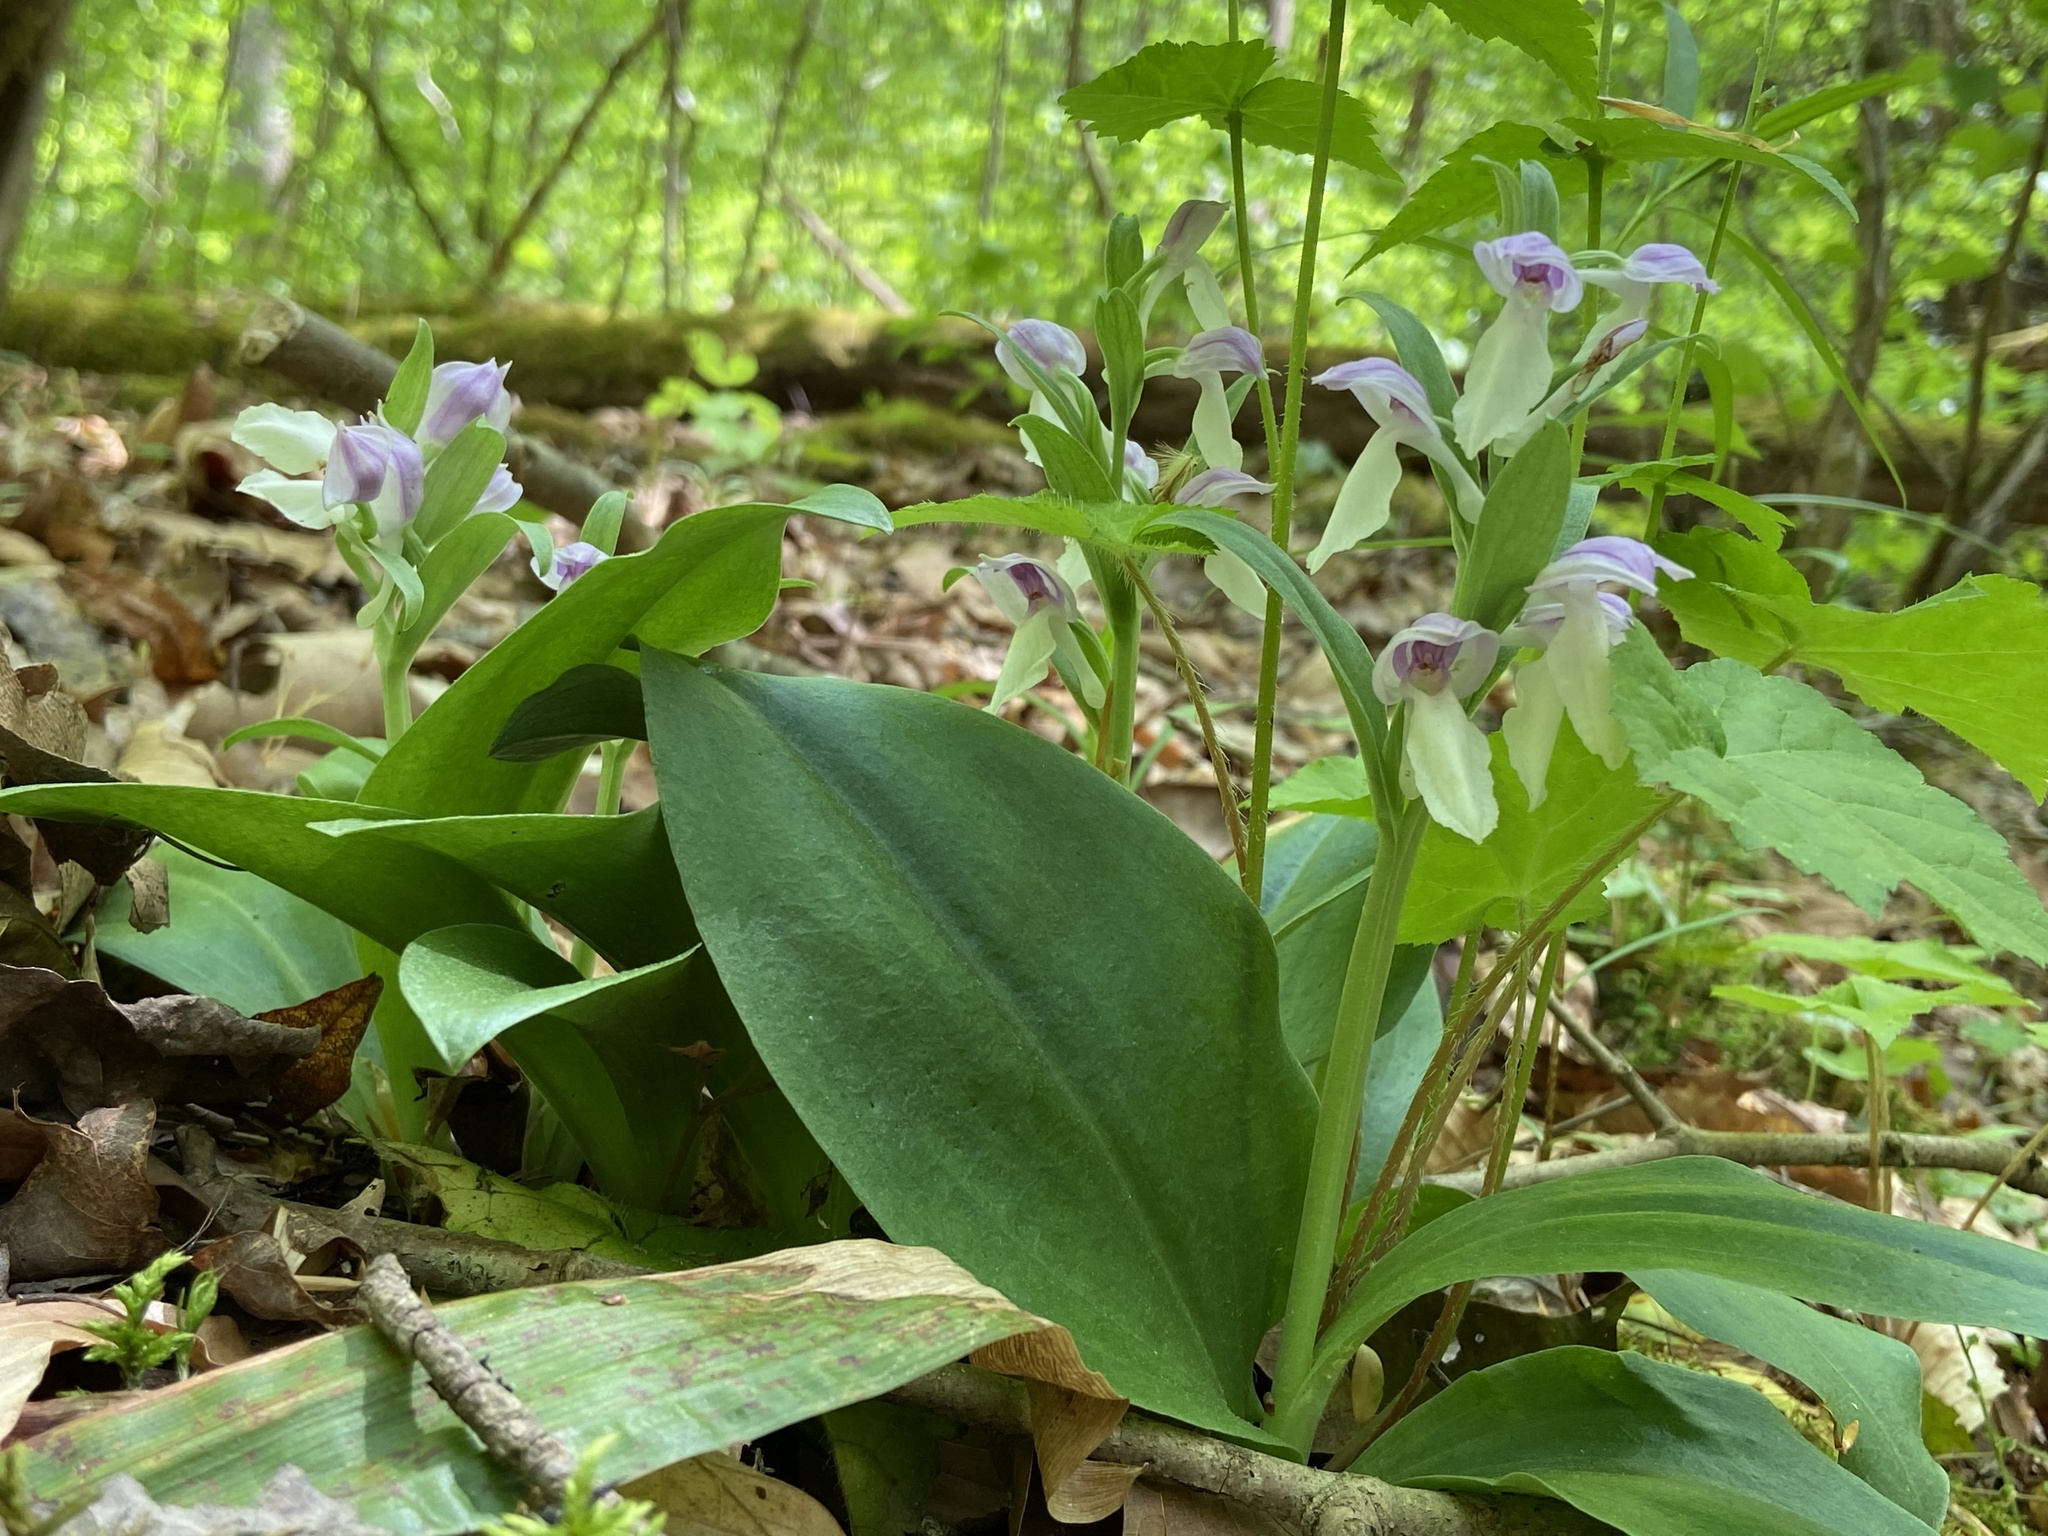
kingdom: Plantae
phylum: Tracheophyta
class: Liliopsida
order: Asparagales
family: Orchidaceae
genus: Galearis
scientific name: Galearis spectabilis
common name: Purple-hooded orchis
